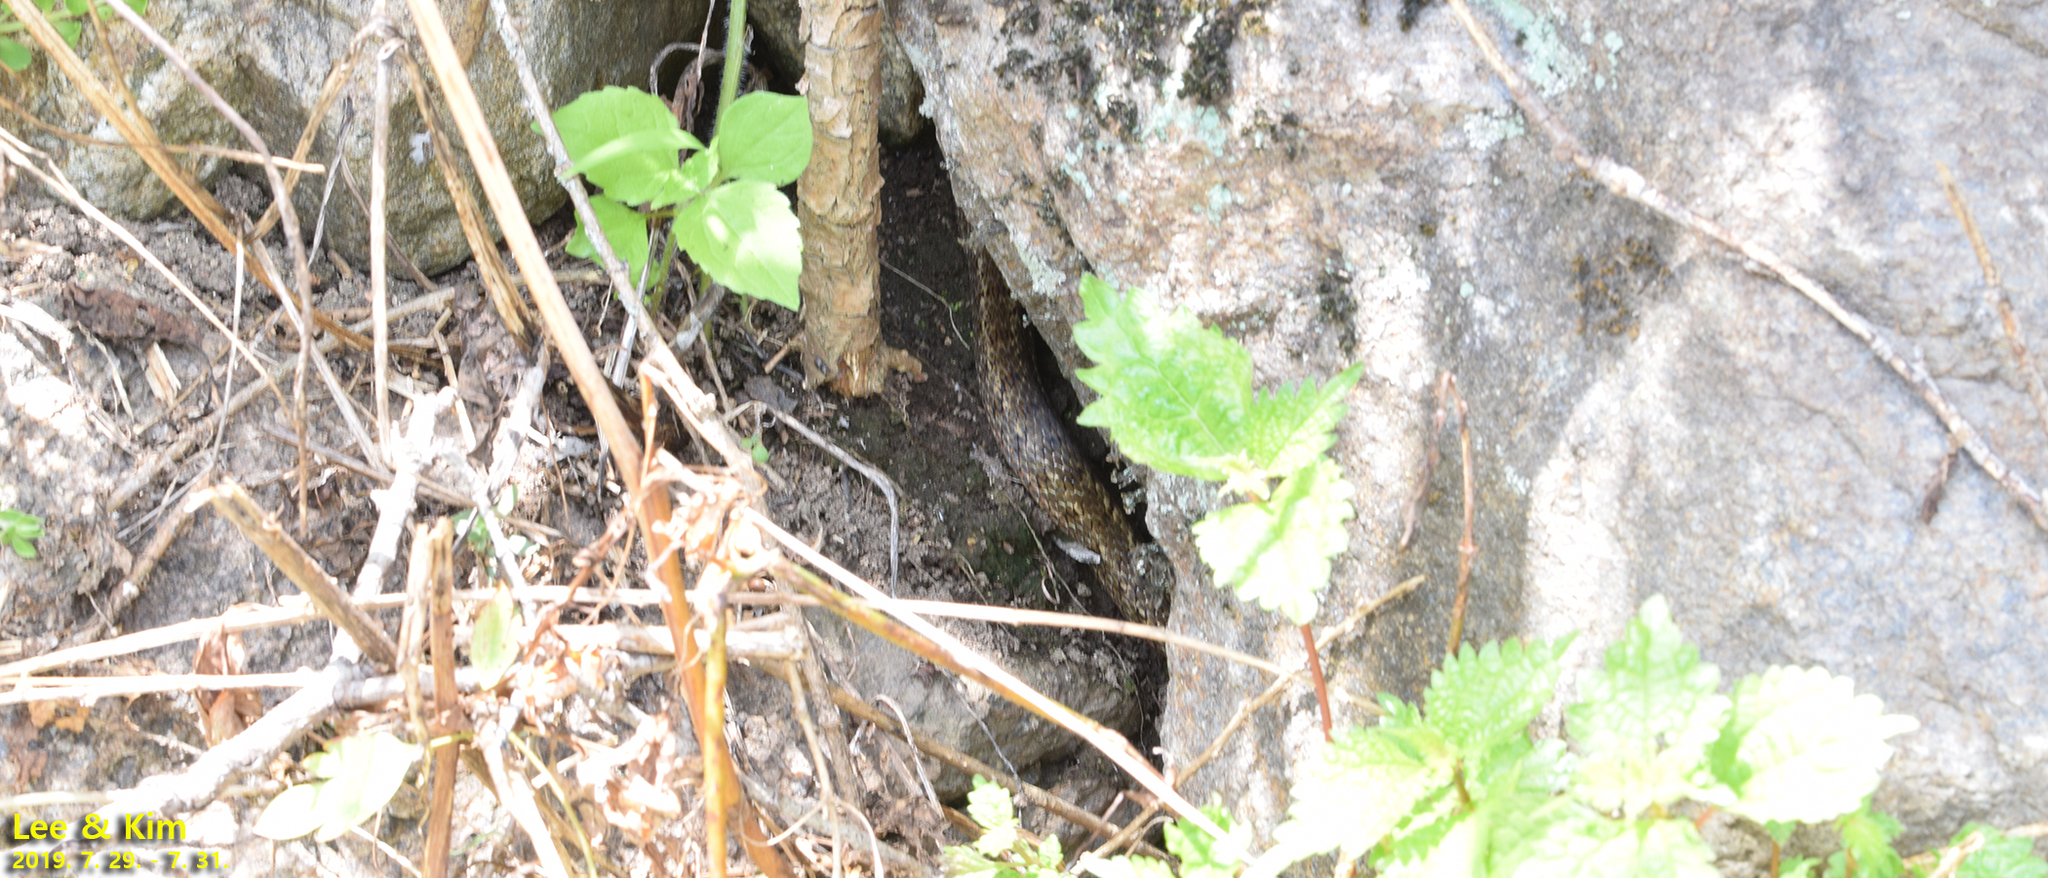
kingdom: Animalia
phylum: Chordata
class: Squamata
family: Colubridae
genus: Elaphe
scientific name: Elaphe dione
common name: Dione ratsnake
